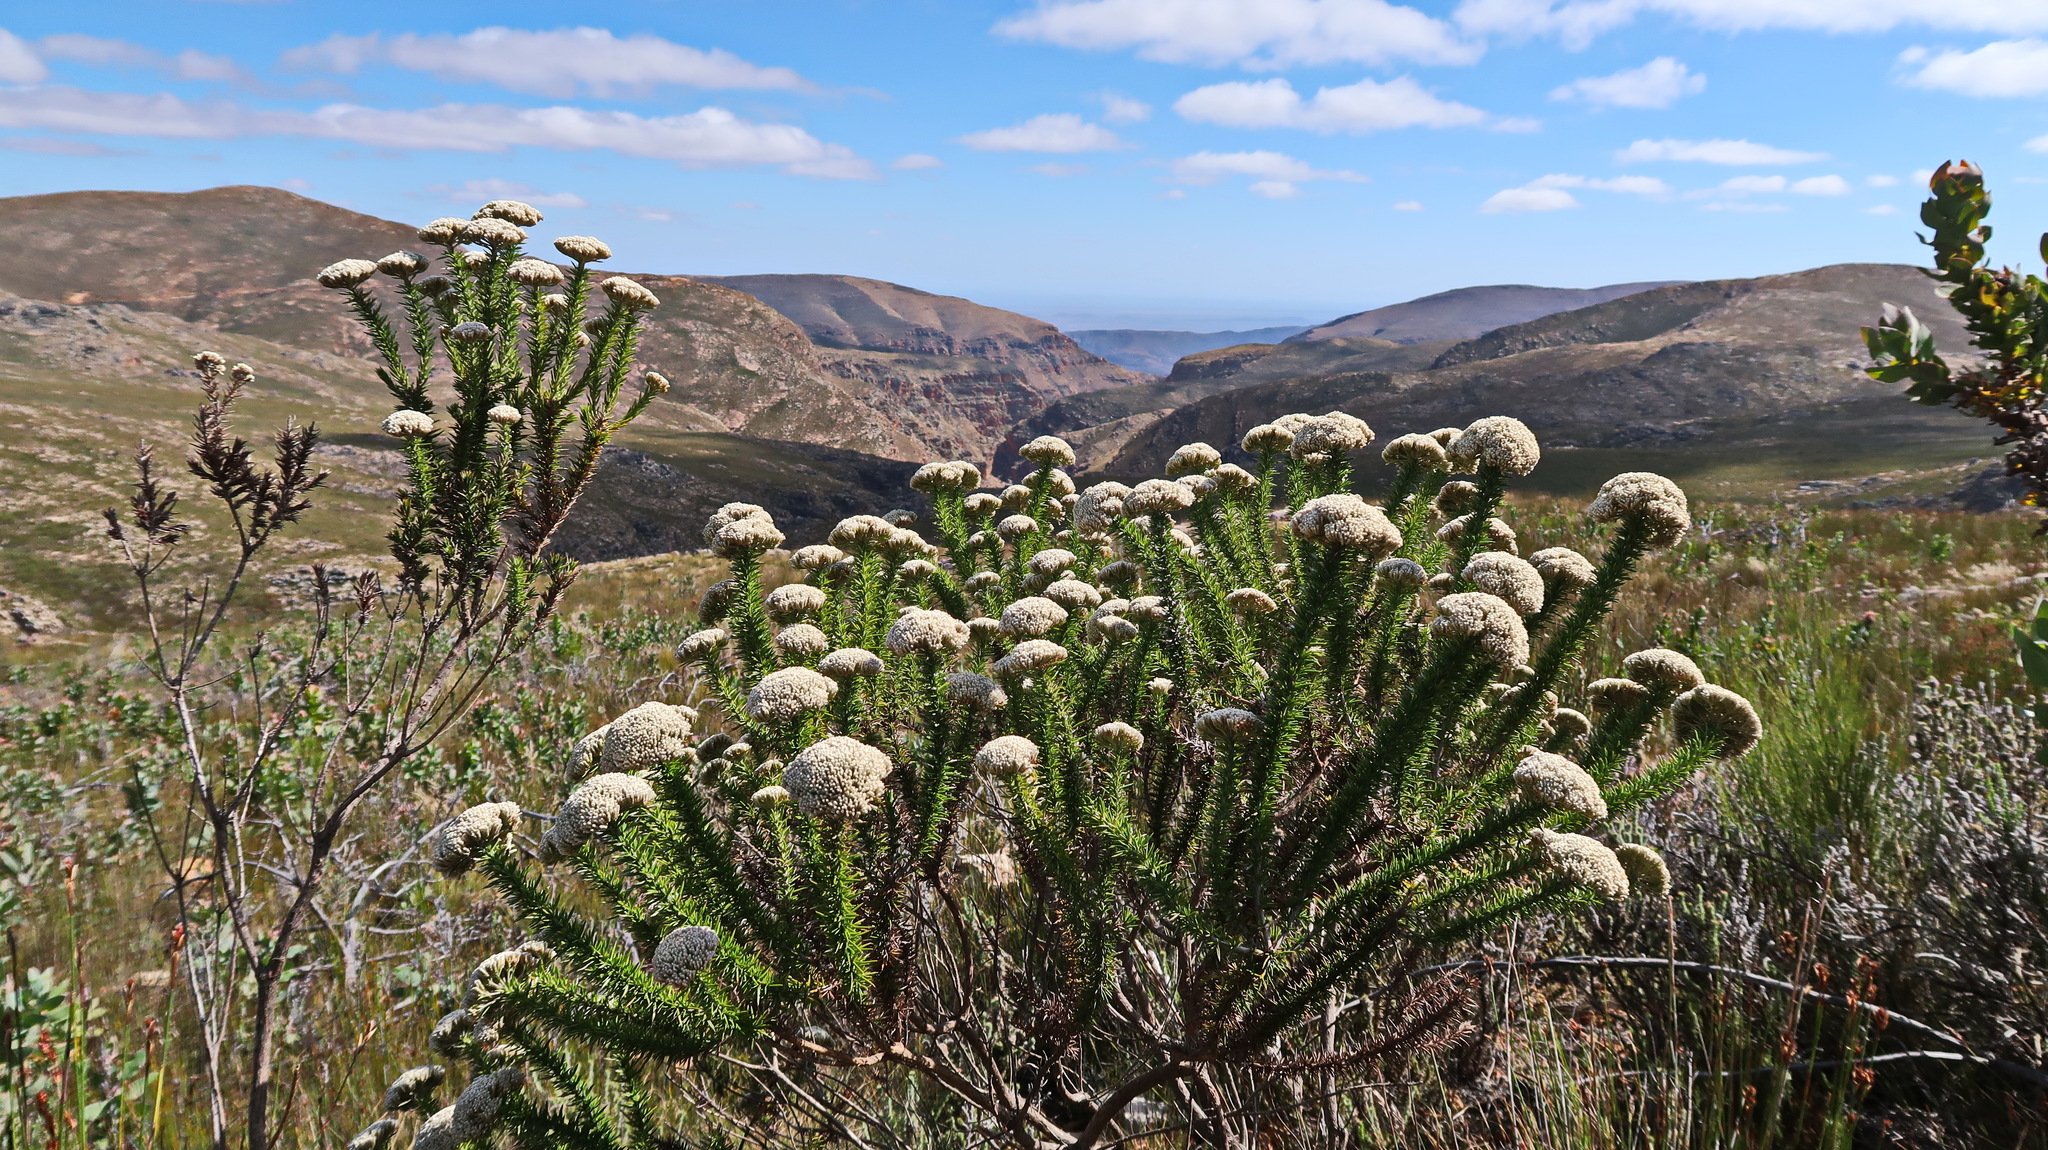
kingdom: Plantae
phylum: Tracheophyta
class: Magnoliopsida
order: Asterales
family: Asteraceae
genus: Metalasia
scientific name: Metalasia trivialis
